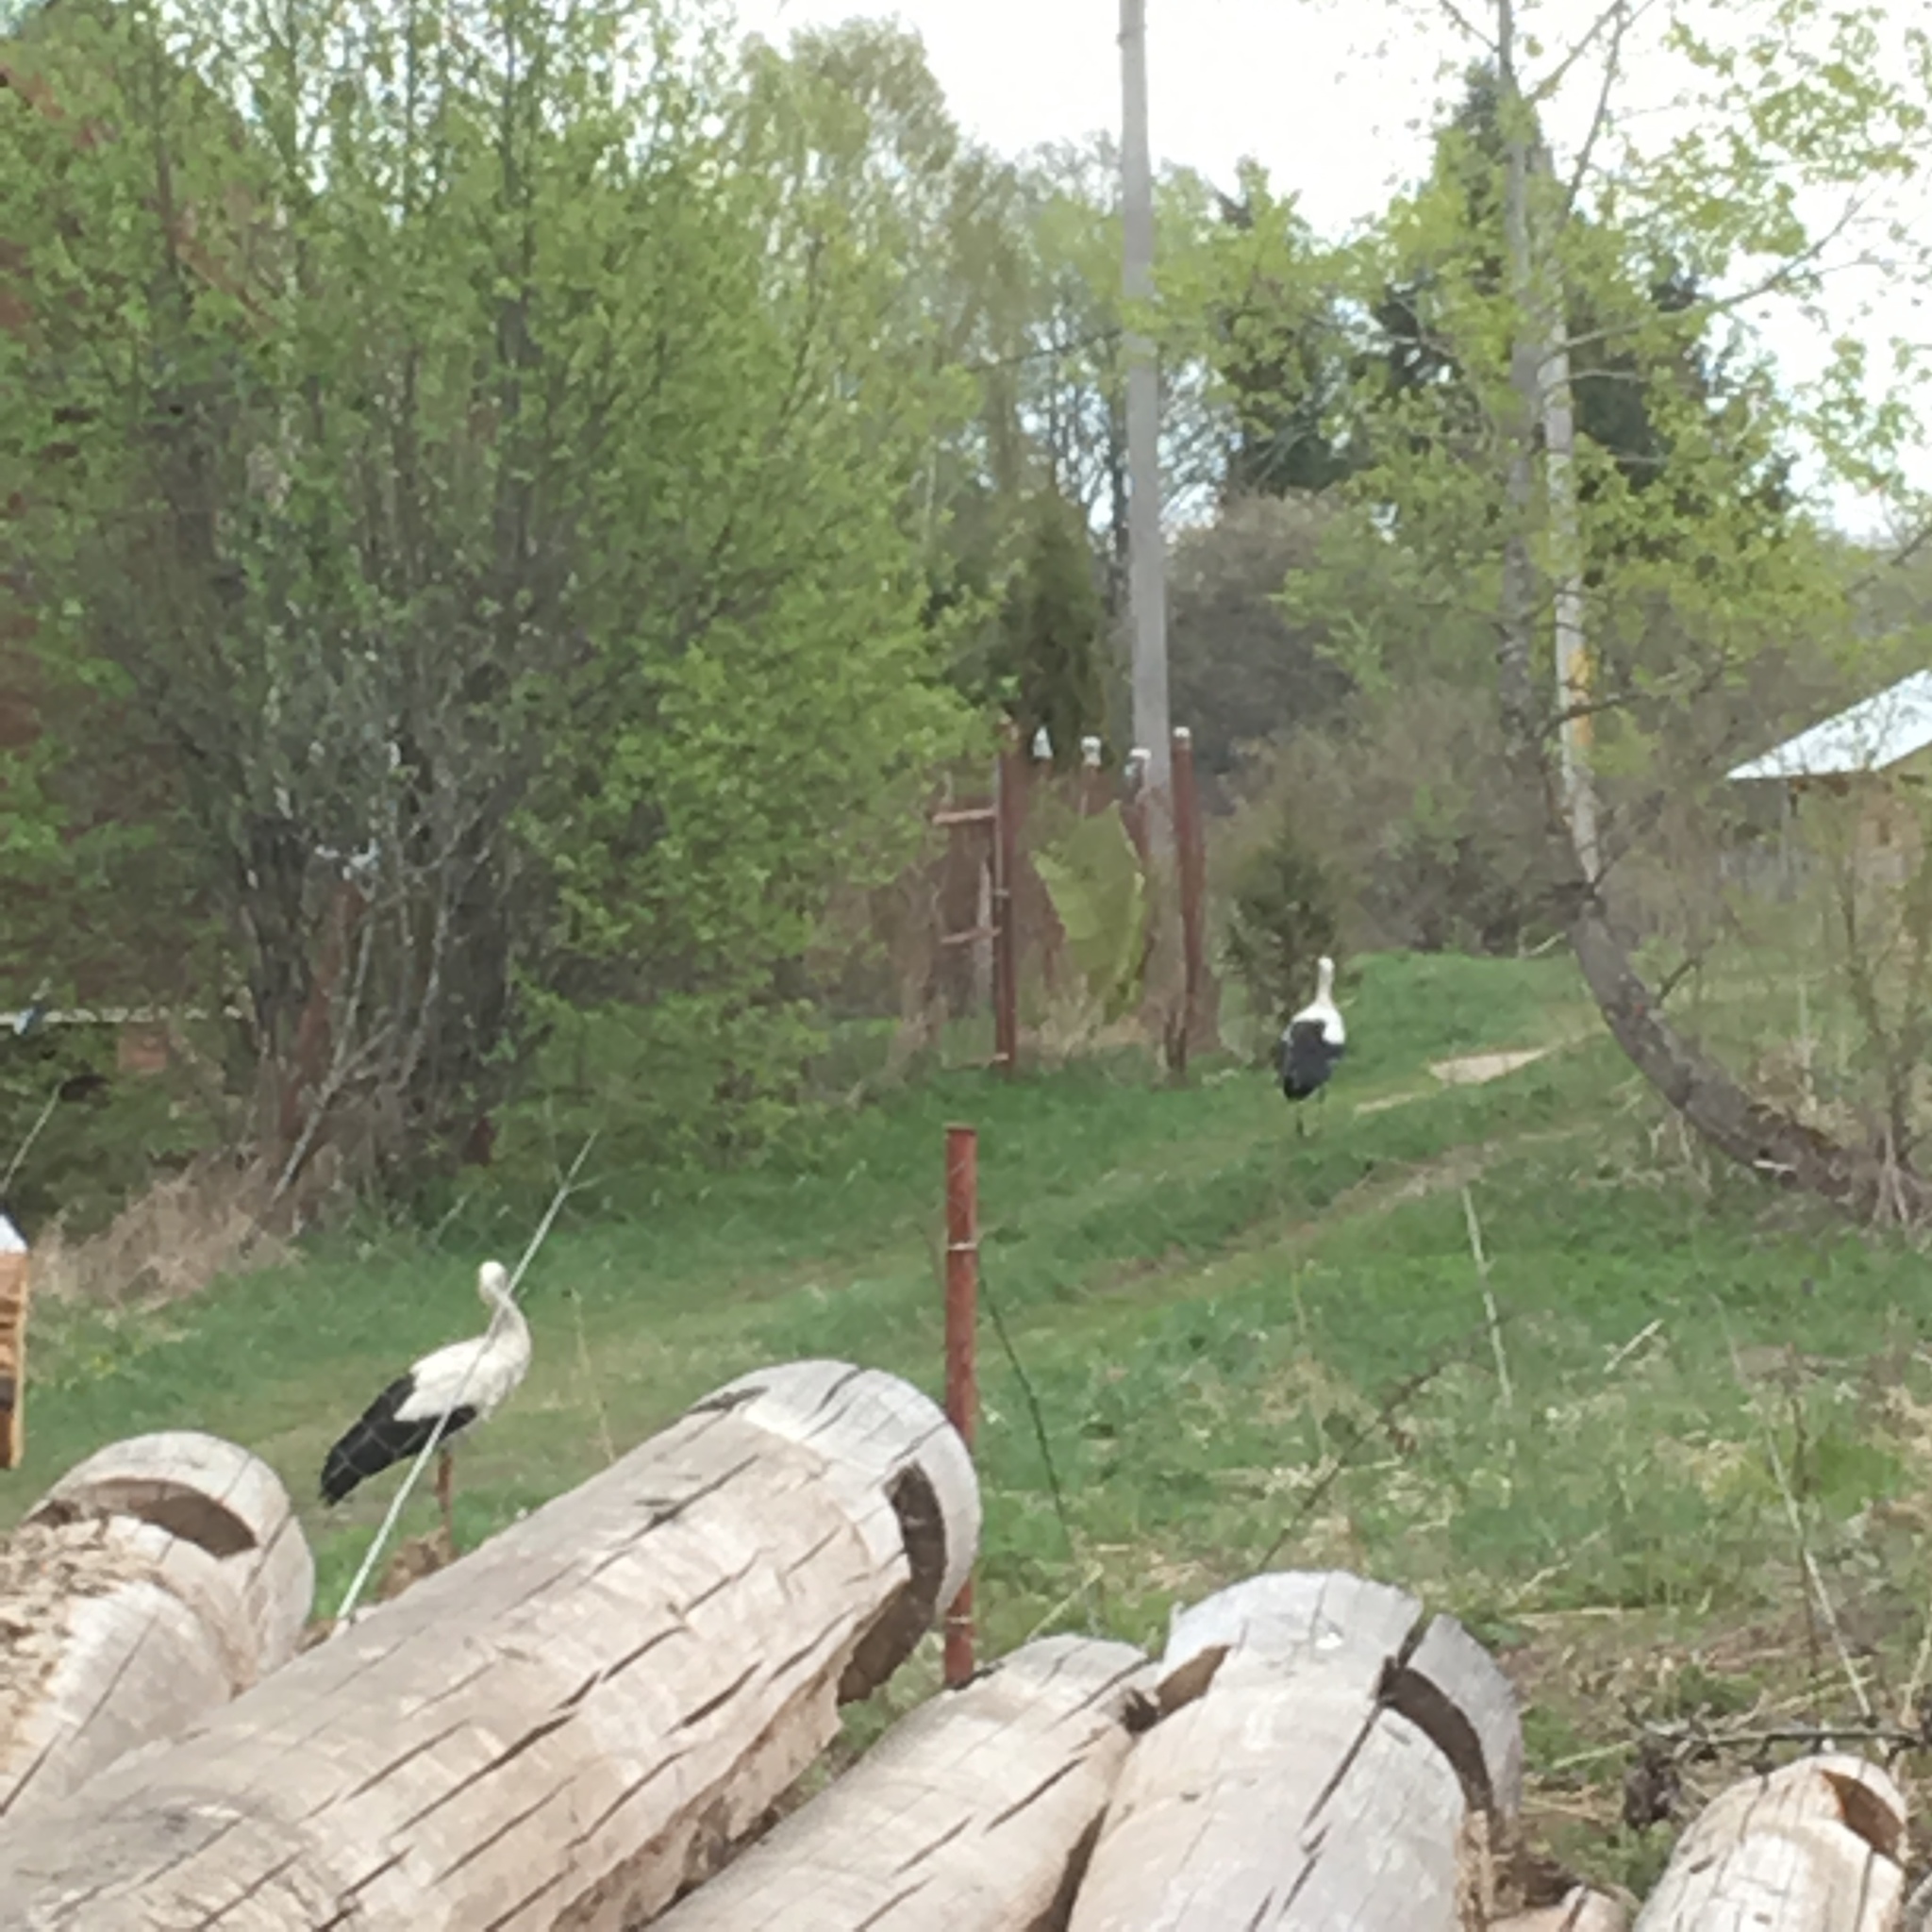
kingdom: Animalia
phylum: Chordata
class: Aves
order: Ciconiiformes
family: Ciconiidae
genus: Ciconia
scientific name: Ciconia ciconia
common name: White stork
